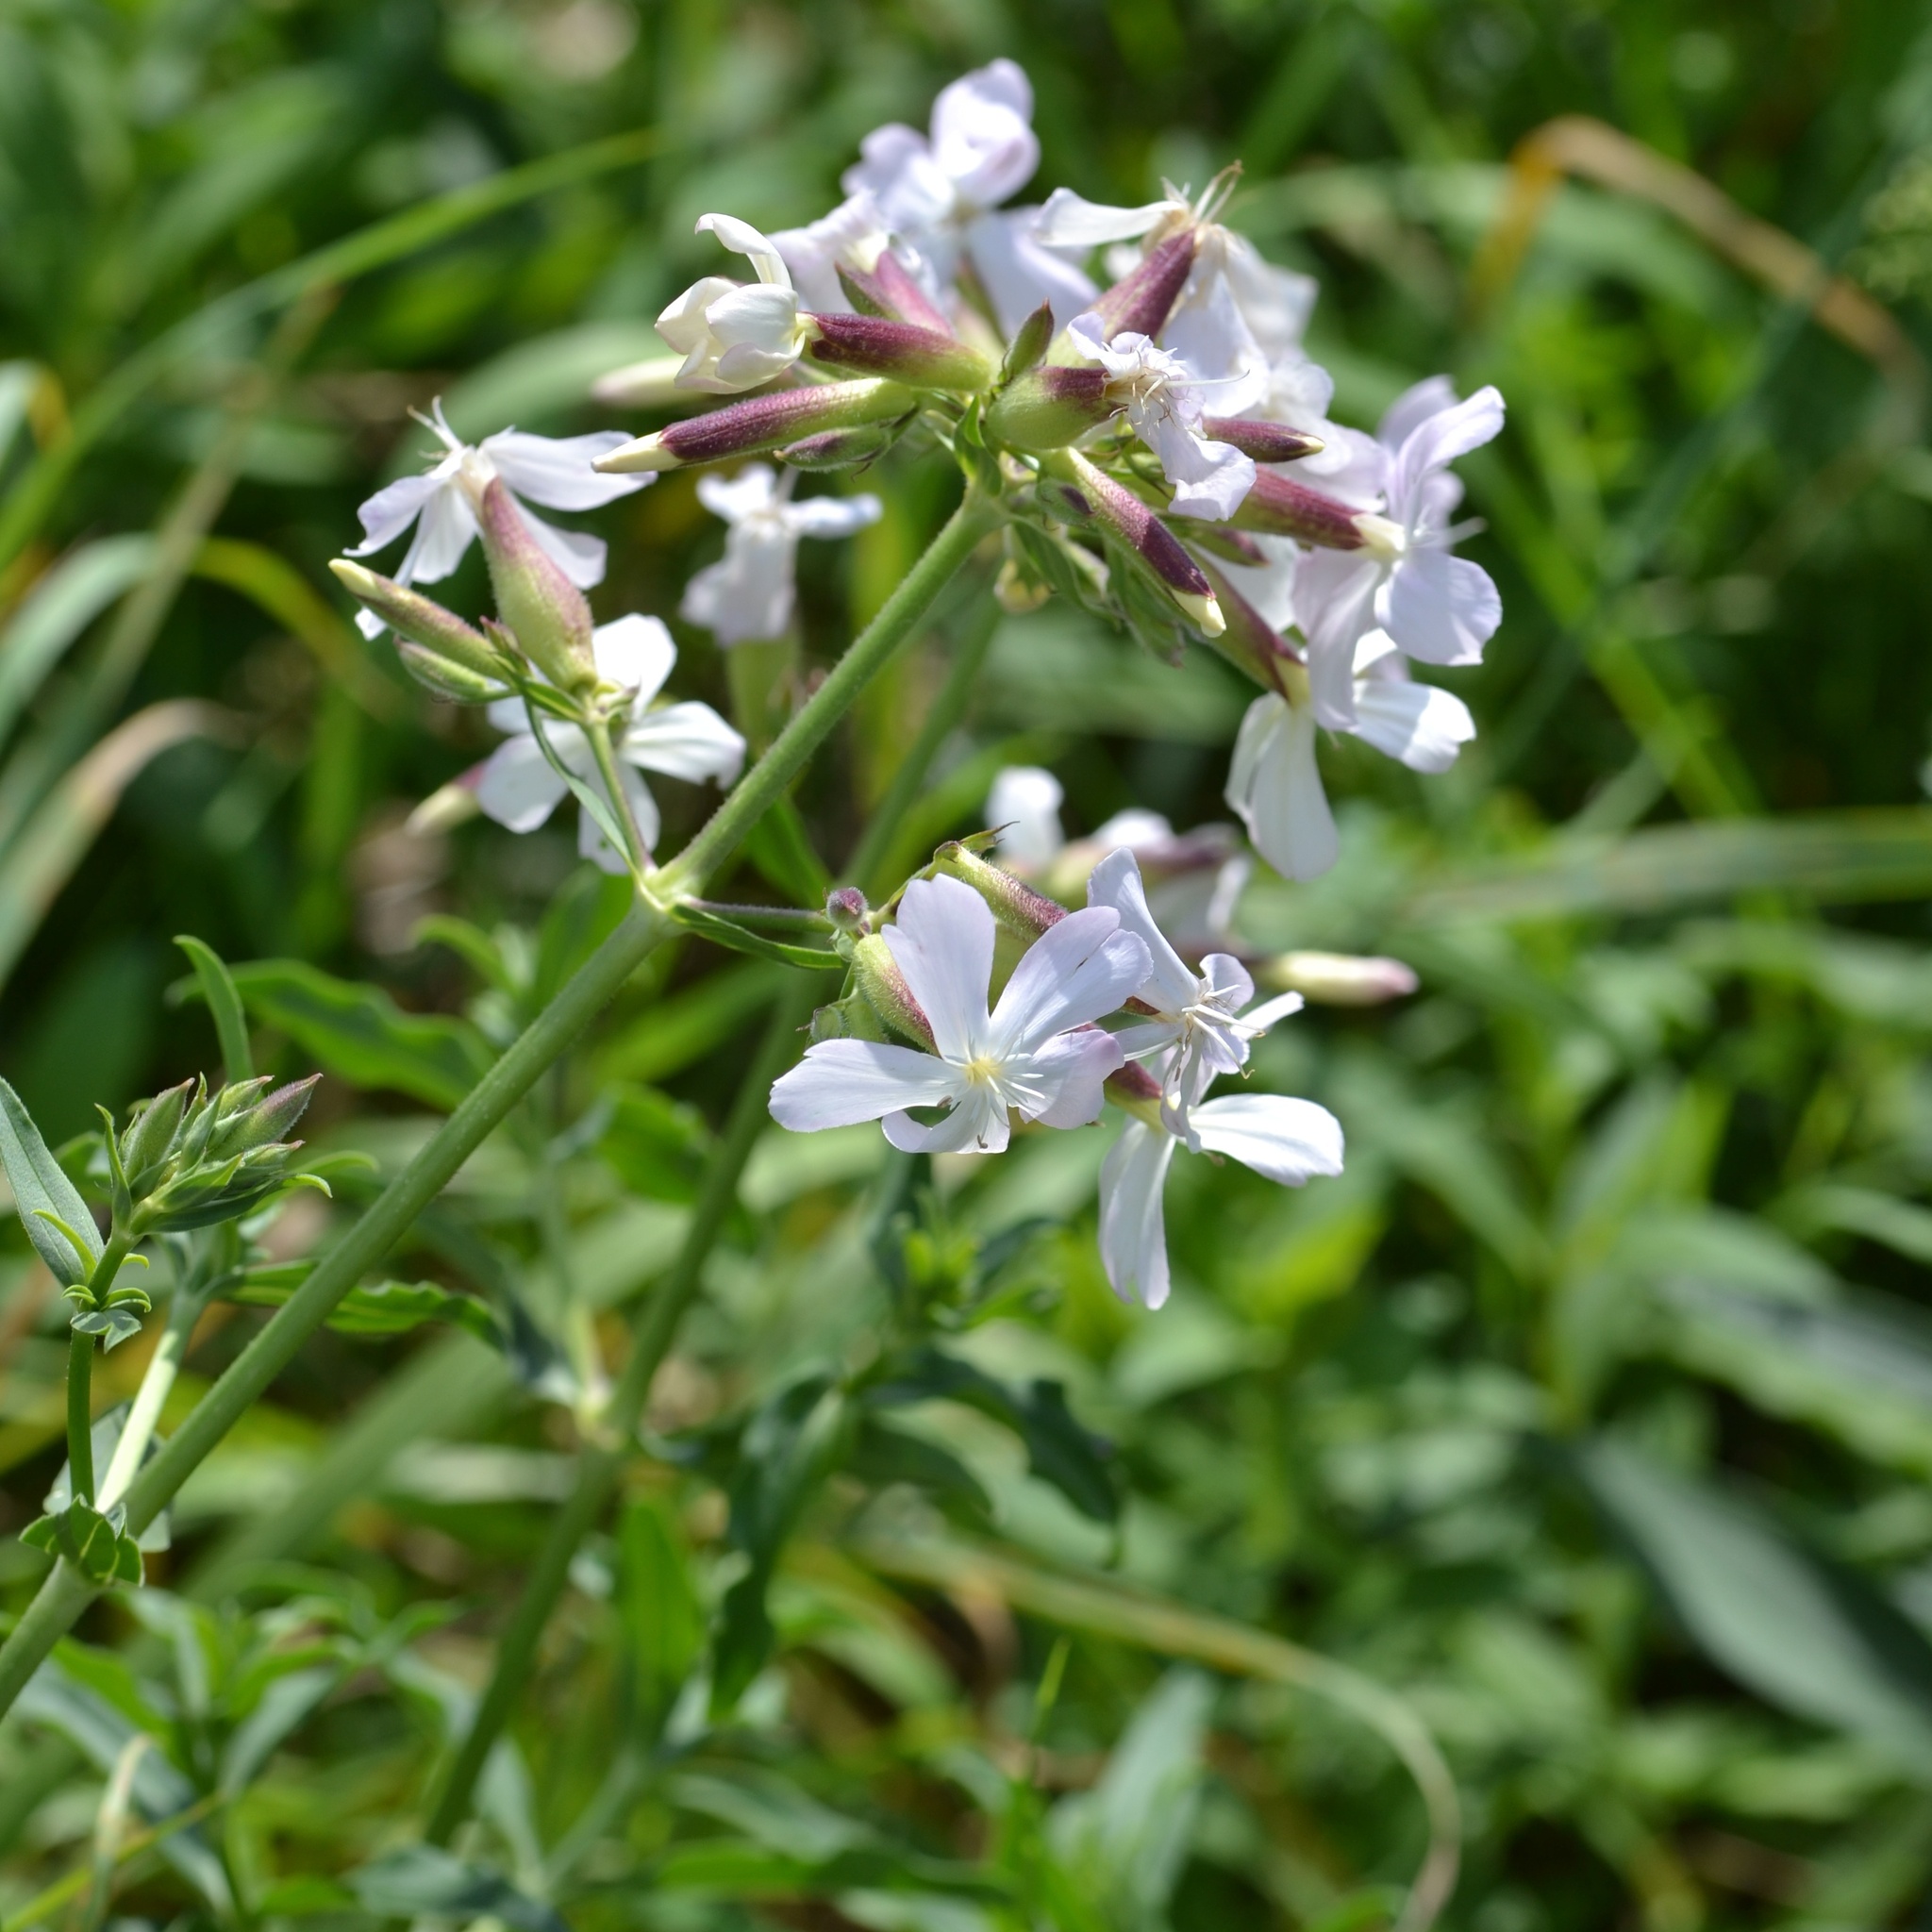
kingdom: Plantae
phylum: Tracheophyta
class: Magnoliopsida
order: Caryophyllales
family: Caryophyllaceae
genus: Saponaria
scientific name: Saponaria officinalis
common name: Soapwort
